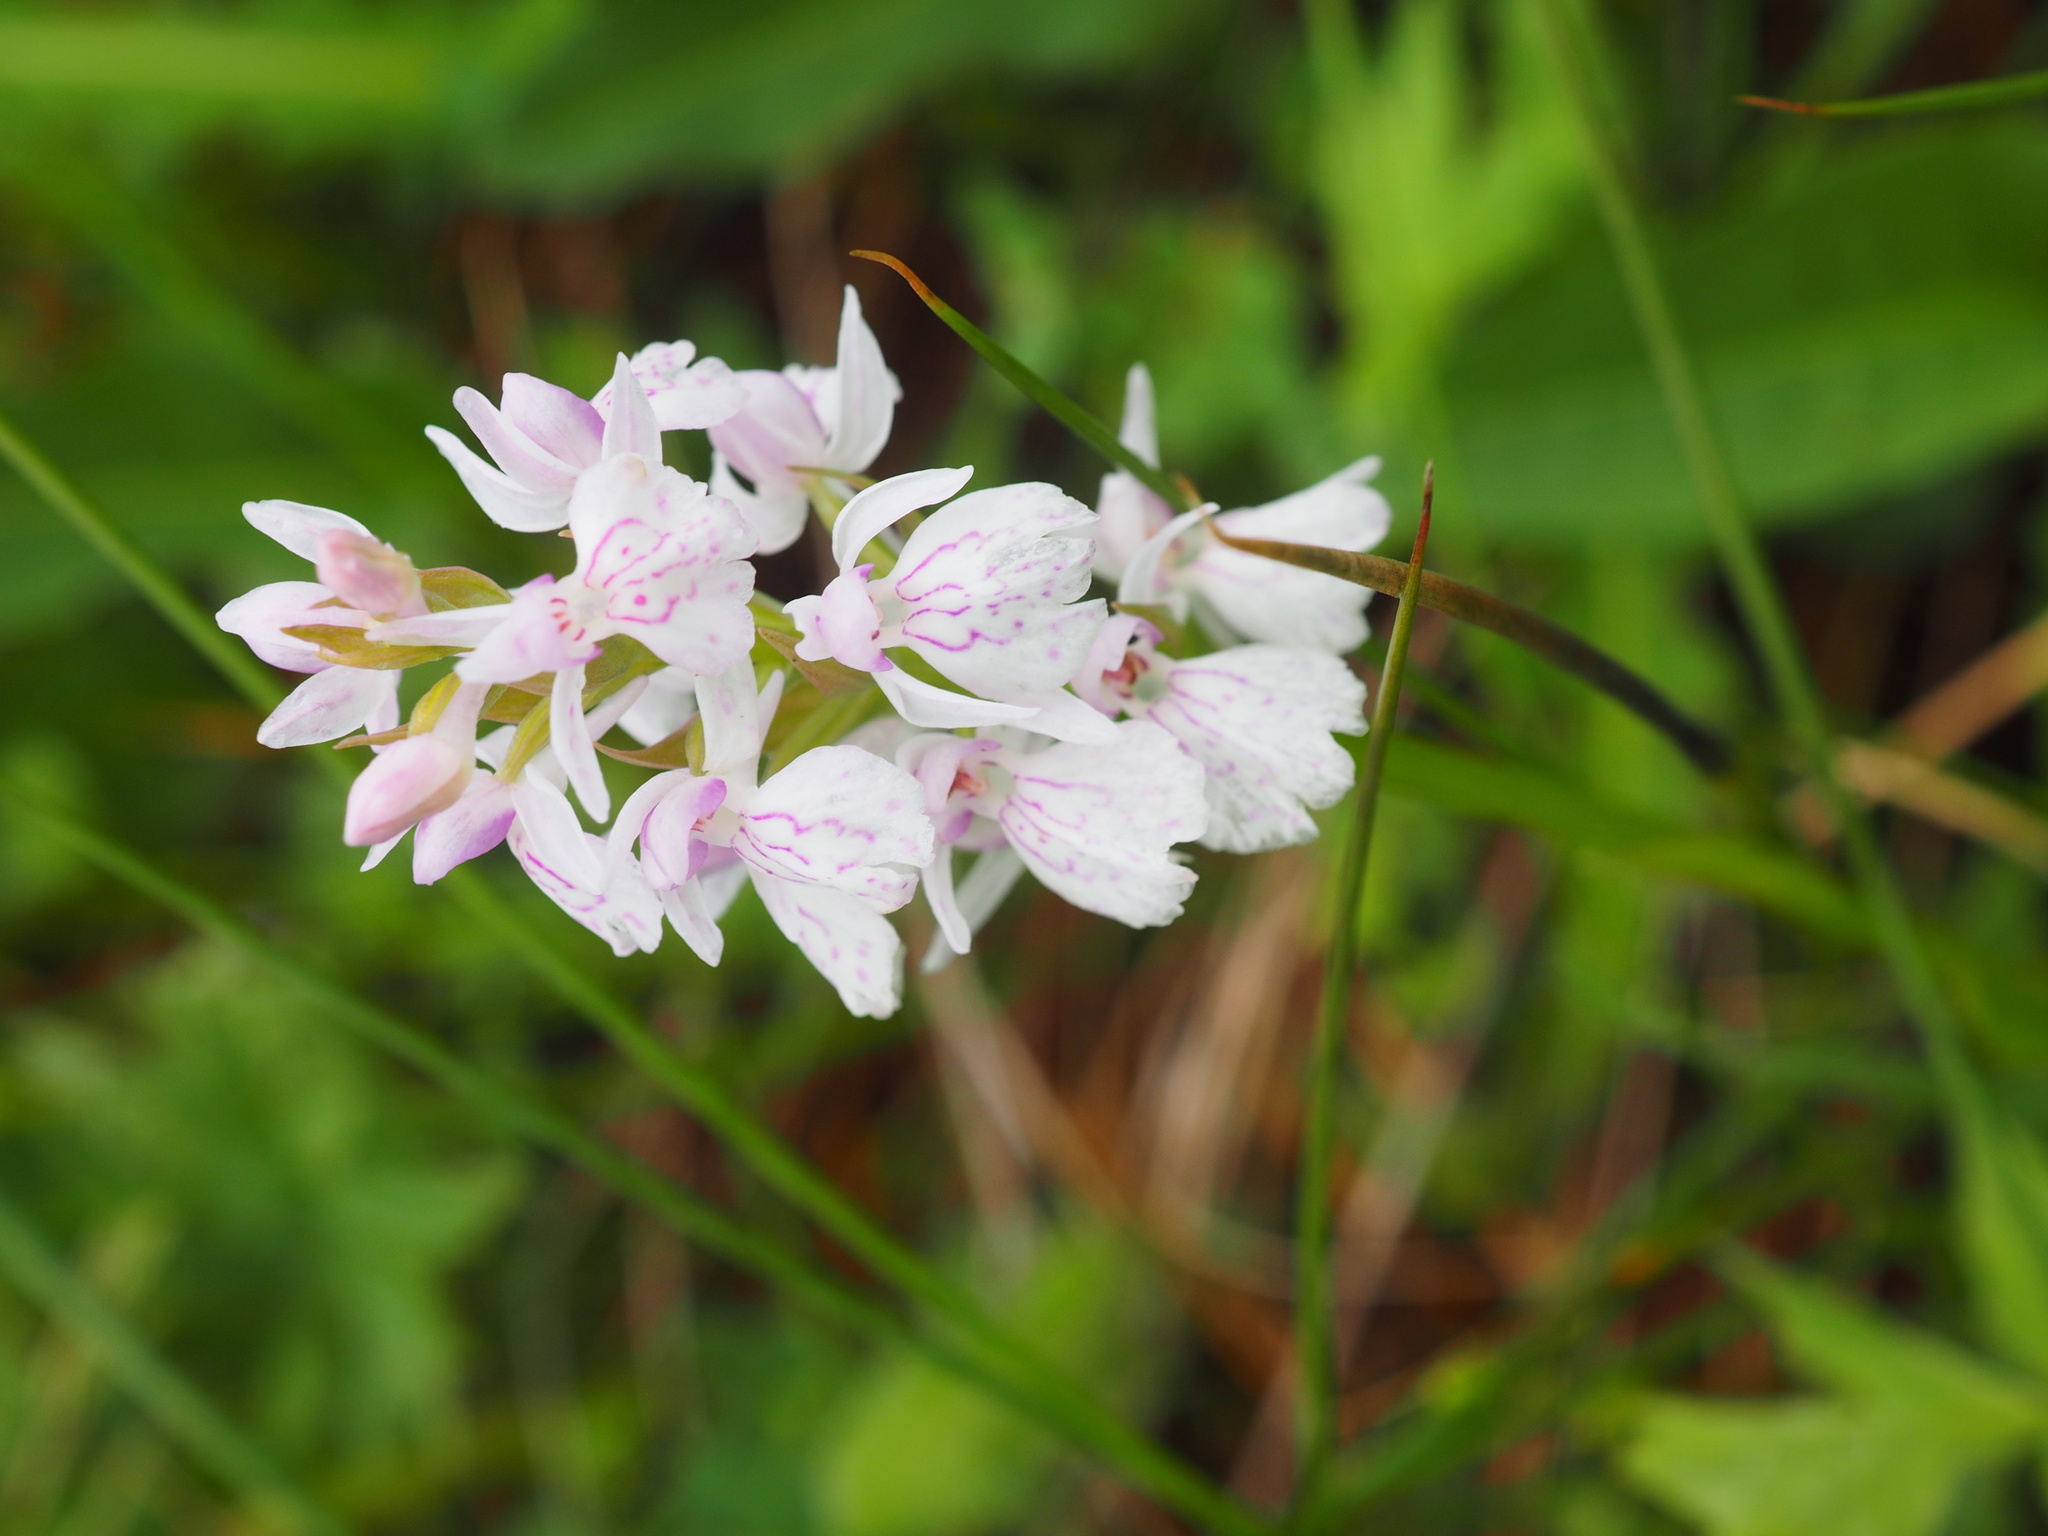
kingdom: Plantae
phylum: Tracheophyta
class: Liliopsida
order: Asparagales
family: Orchidaceae
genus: Dactylorhiza
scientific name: Dactylorhiza maculata
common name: Heath spotted-orchid
